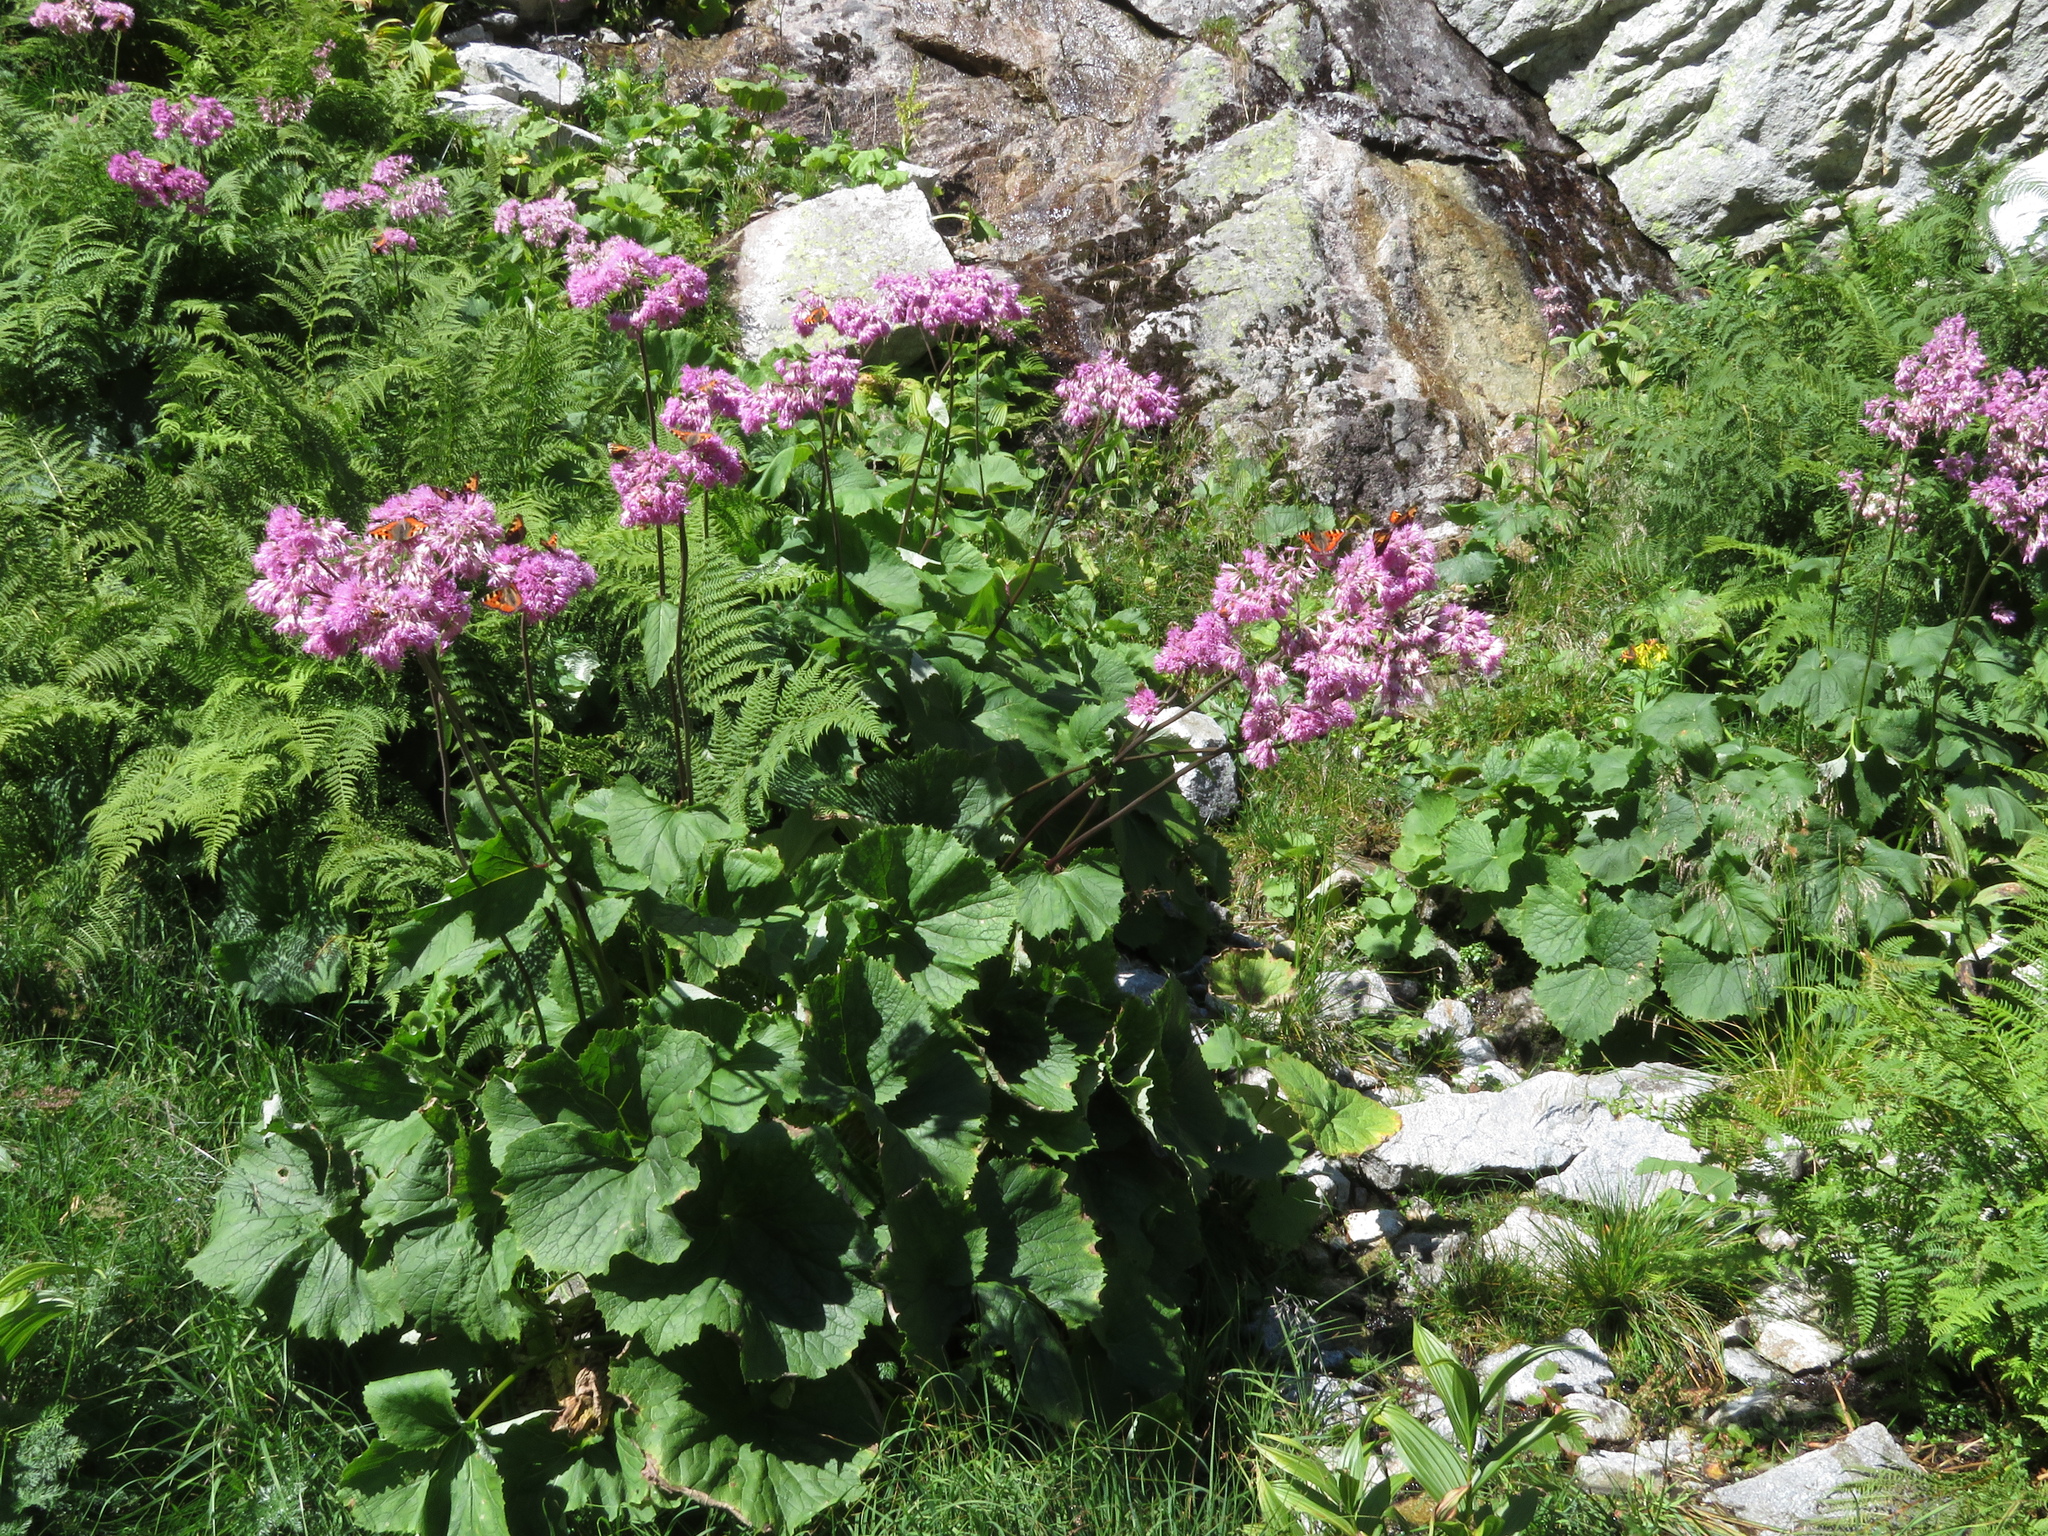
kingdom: Plantae
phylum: Tracheophyta
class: Magnoliopsida
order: Asterales
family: Asteraceae
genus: Adenostyles
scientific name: Adenostyles alliariae
